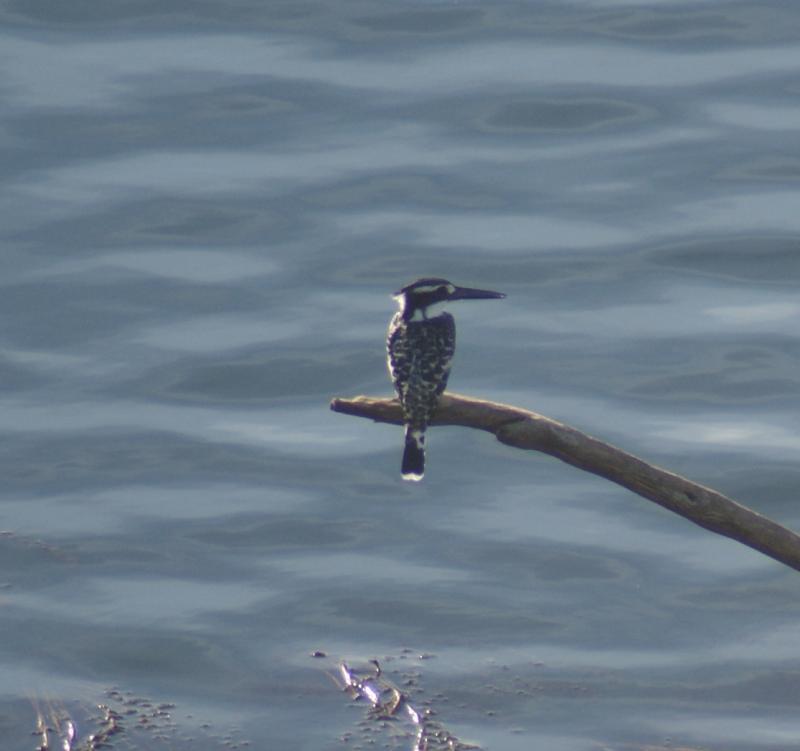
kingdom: Animalia
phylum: Chordata
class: Aves
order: Coraciiformes
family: Alcedinidae
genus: Ceryle
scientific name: Ceryle rudis
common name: Pied kingfisher
